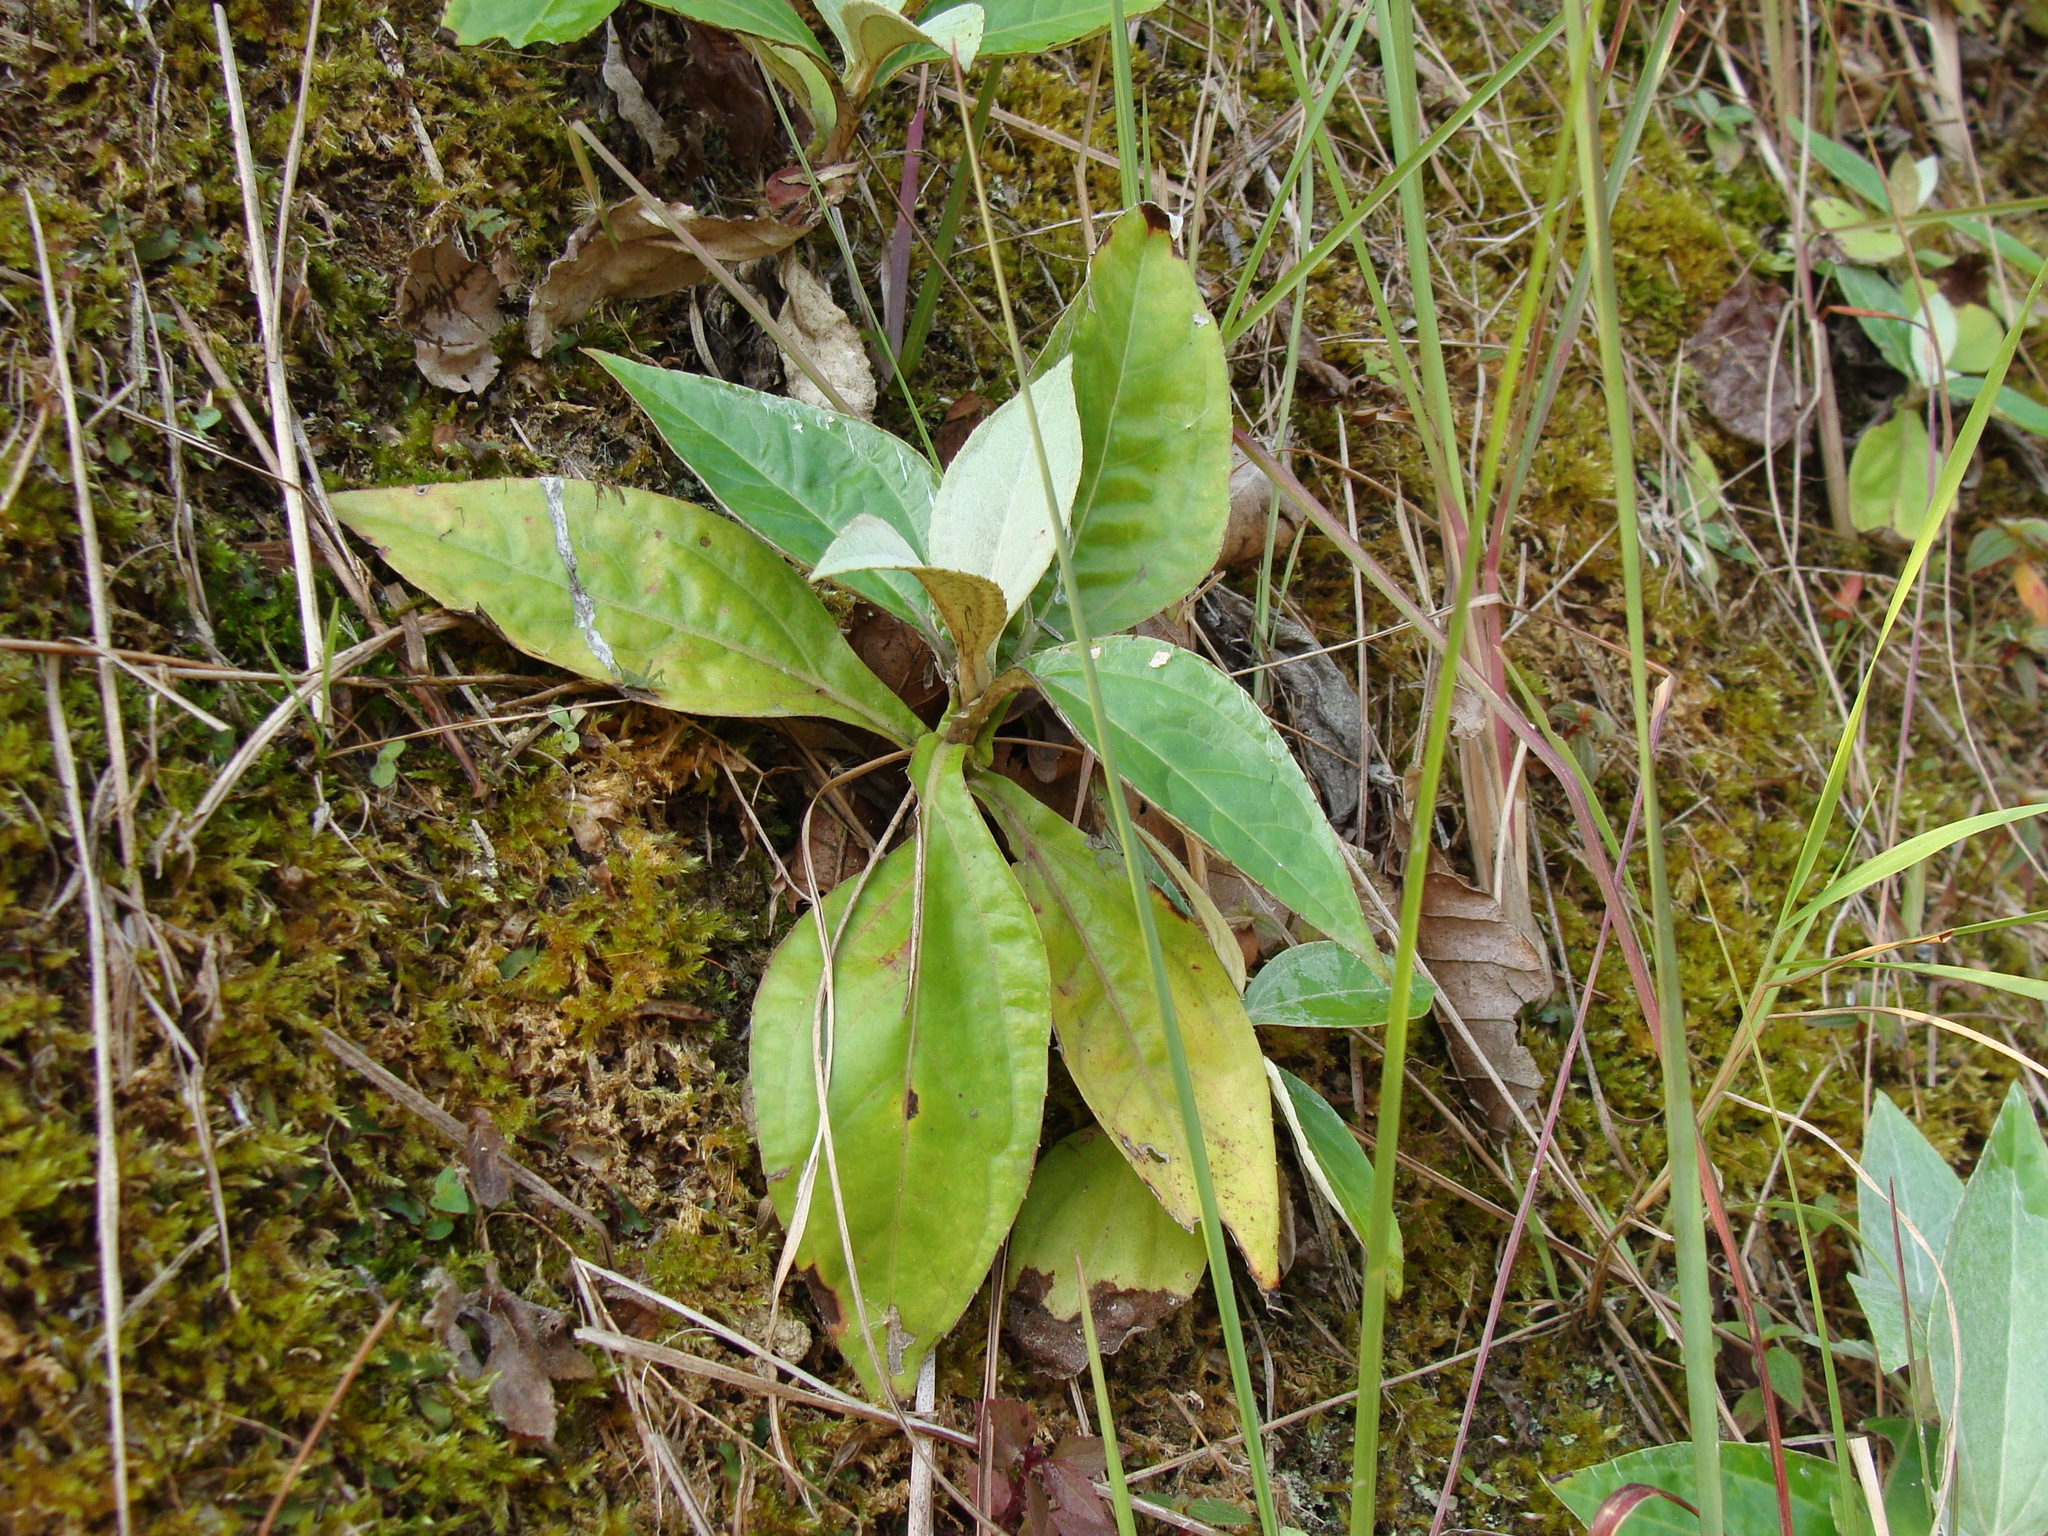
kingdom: Plantae
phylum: Tracheophyta
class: Magnoliopsida
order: Asterales
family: Asteraceae
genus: Liabum
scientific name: Liabum asclepiadeum
